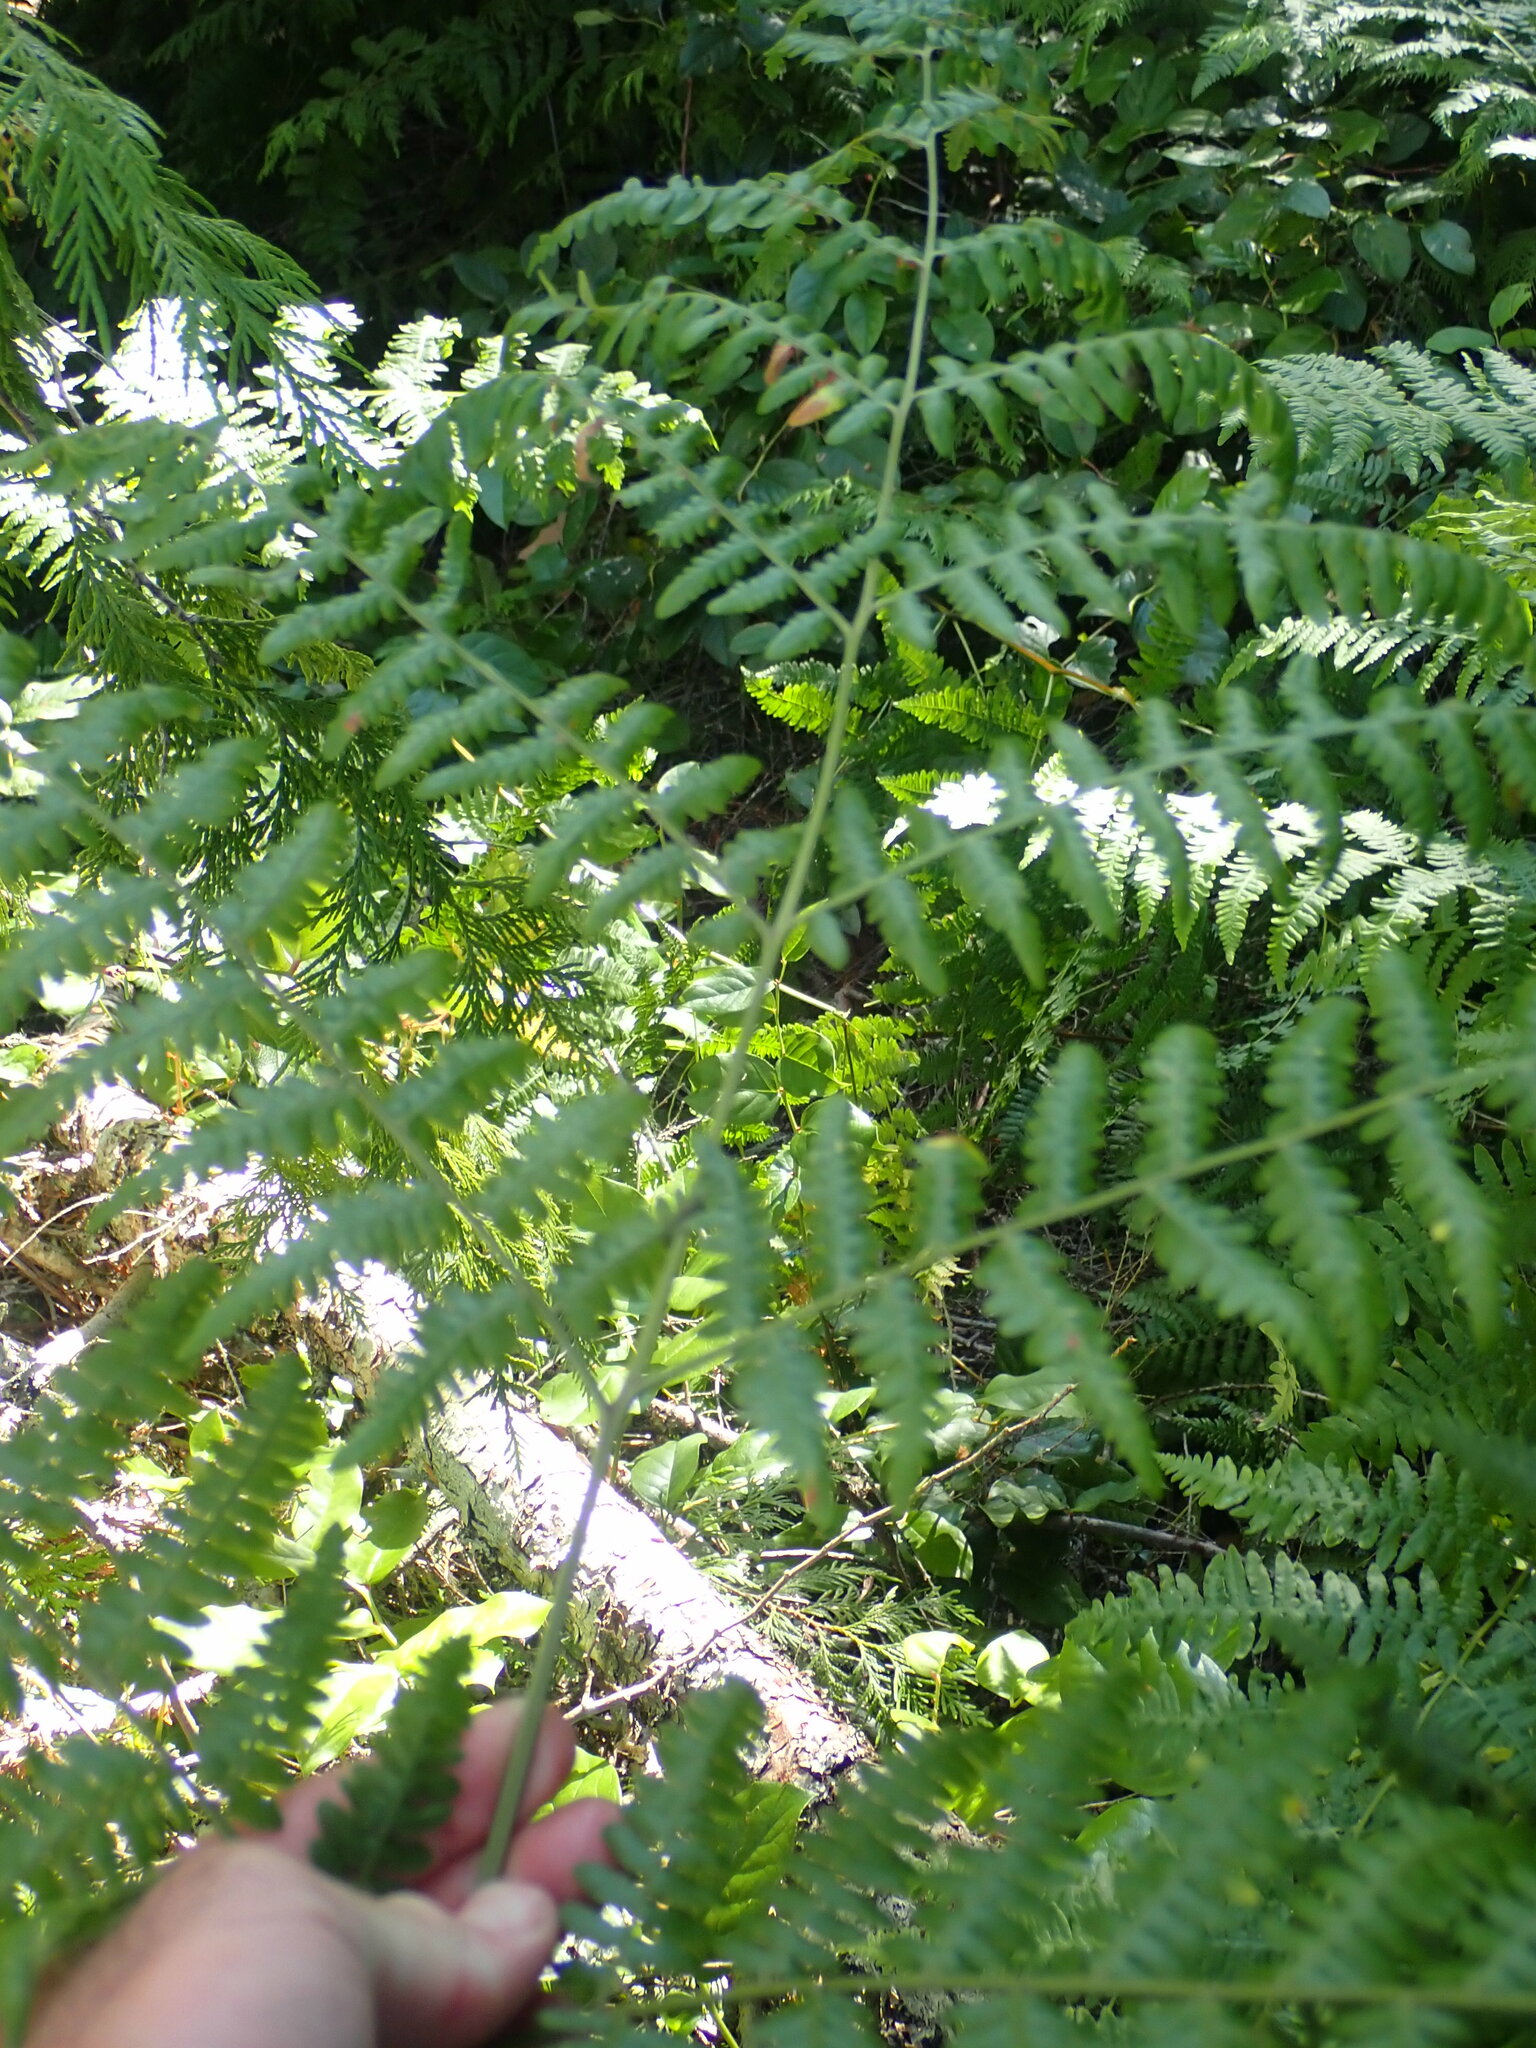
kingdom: Plantae
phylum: Tracheophyta
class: Polypodiopsida
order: Polypodiales
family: Dennstaedtiaceae
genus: Pteridium
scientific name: Pteridium aquilinum
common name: Bracken
